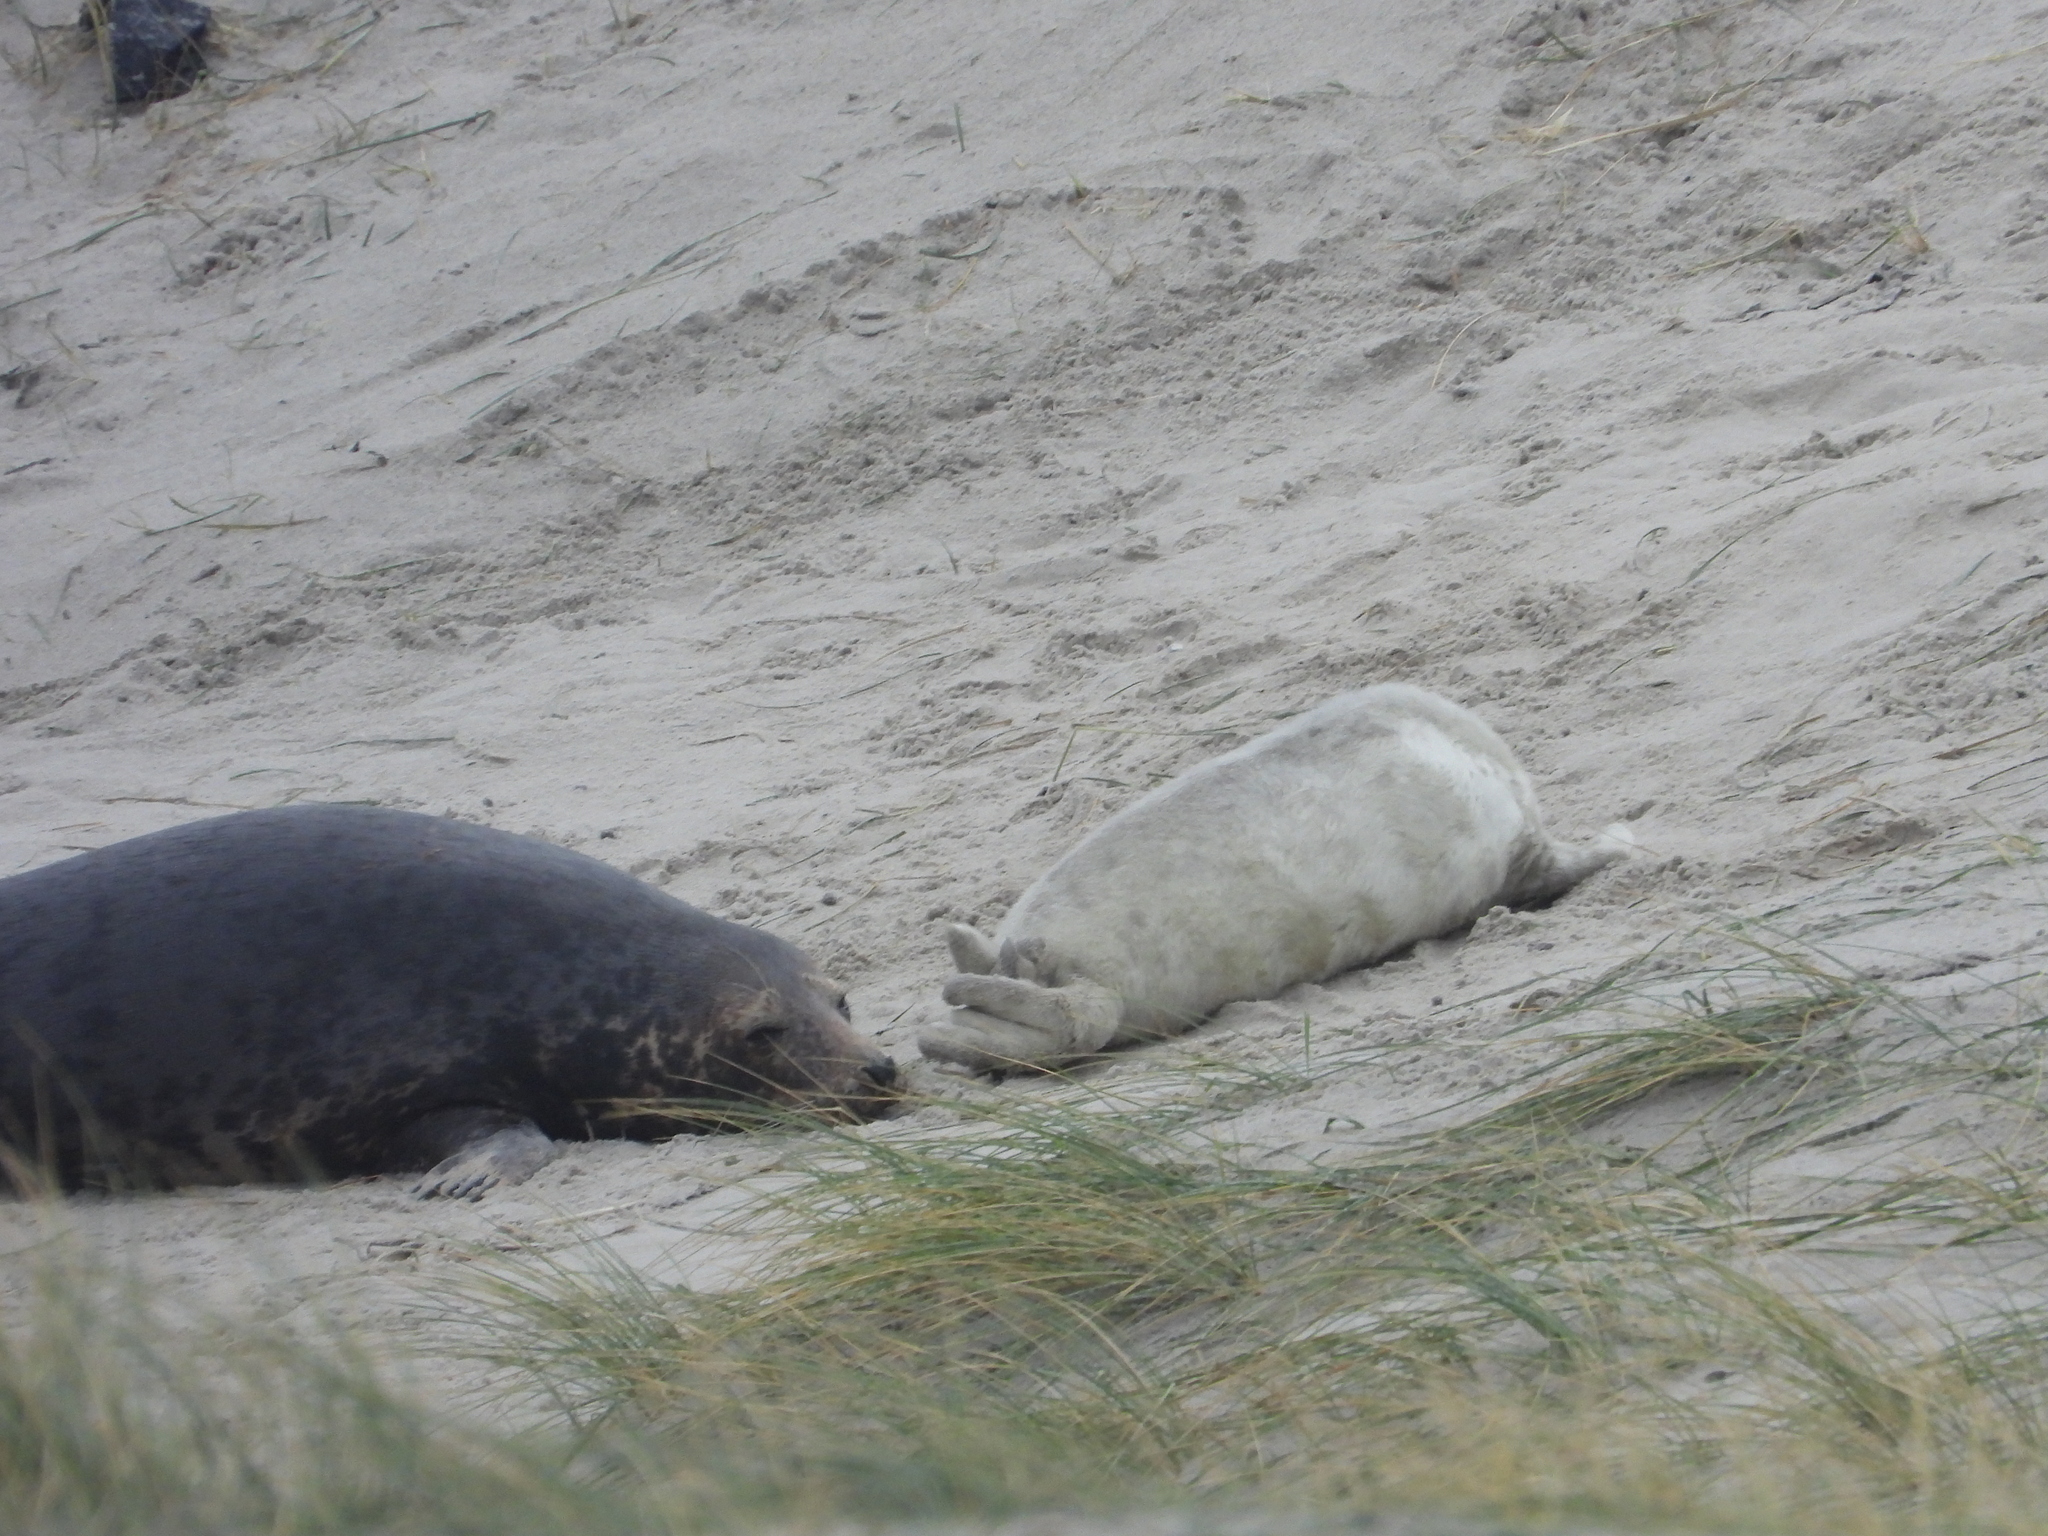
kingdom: Animalia
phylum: Chordata
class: Mammalia
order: Carnivora
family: Phocidae
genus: Halichoerus
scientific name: Halichoerus grypus
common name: Grey seal
